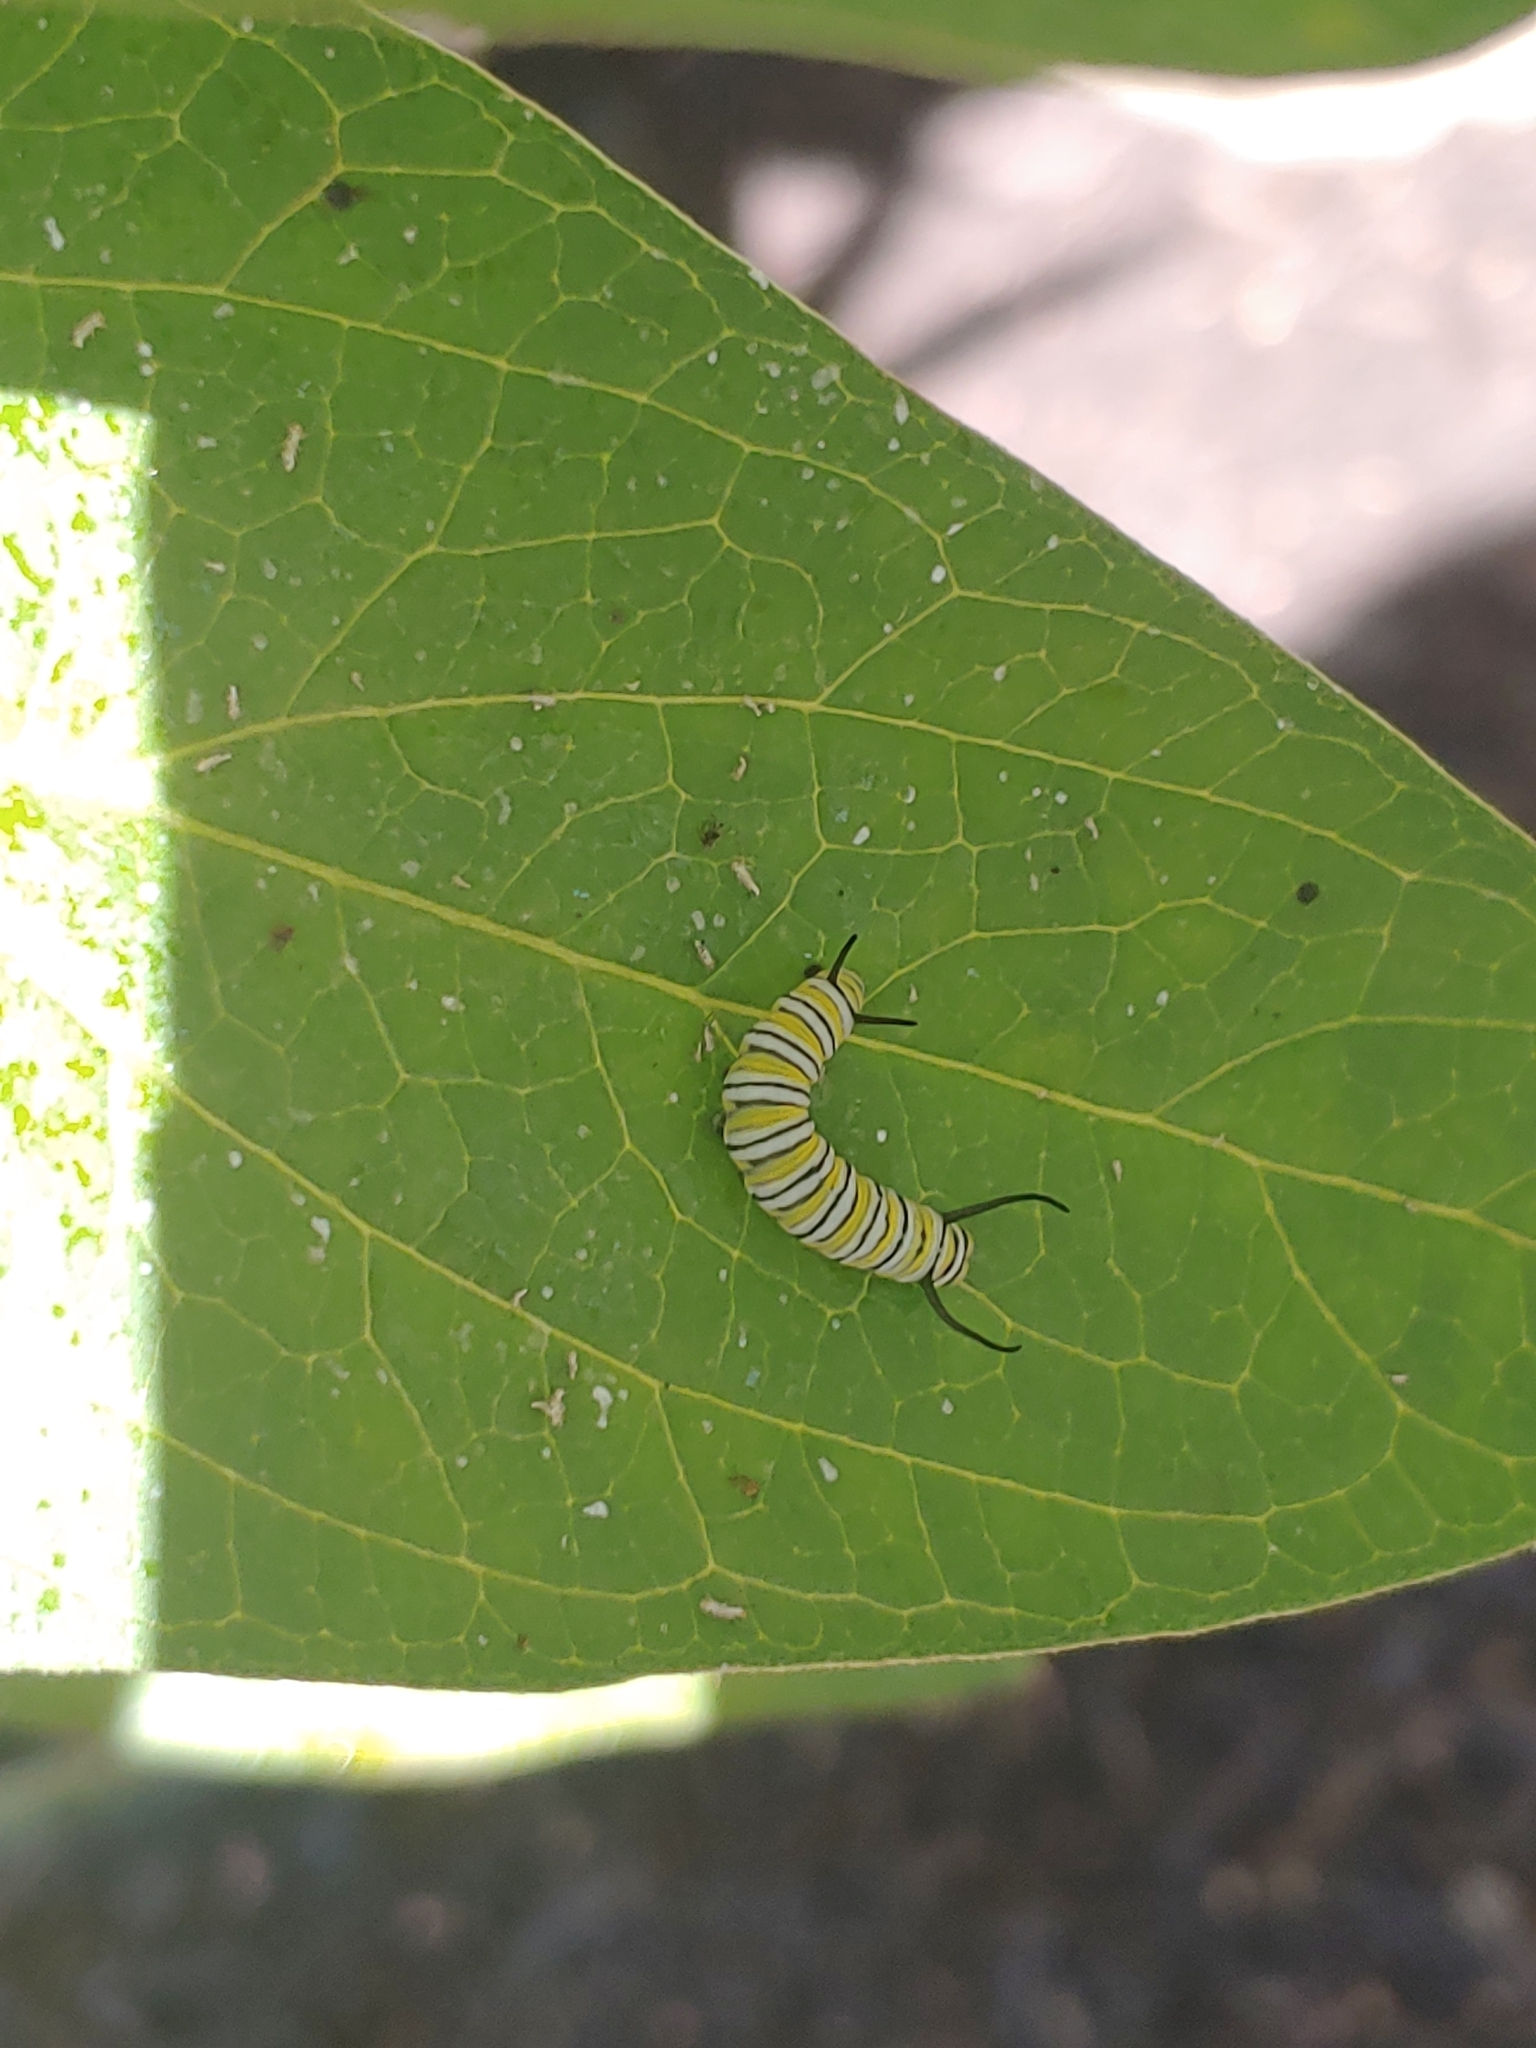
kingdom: Animalia
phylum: Arthropoda
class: Insecta
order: Lepidoptera
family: Nymphalidae
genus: Danaus
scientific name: Danaus plexippus
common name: Monarch
